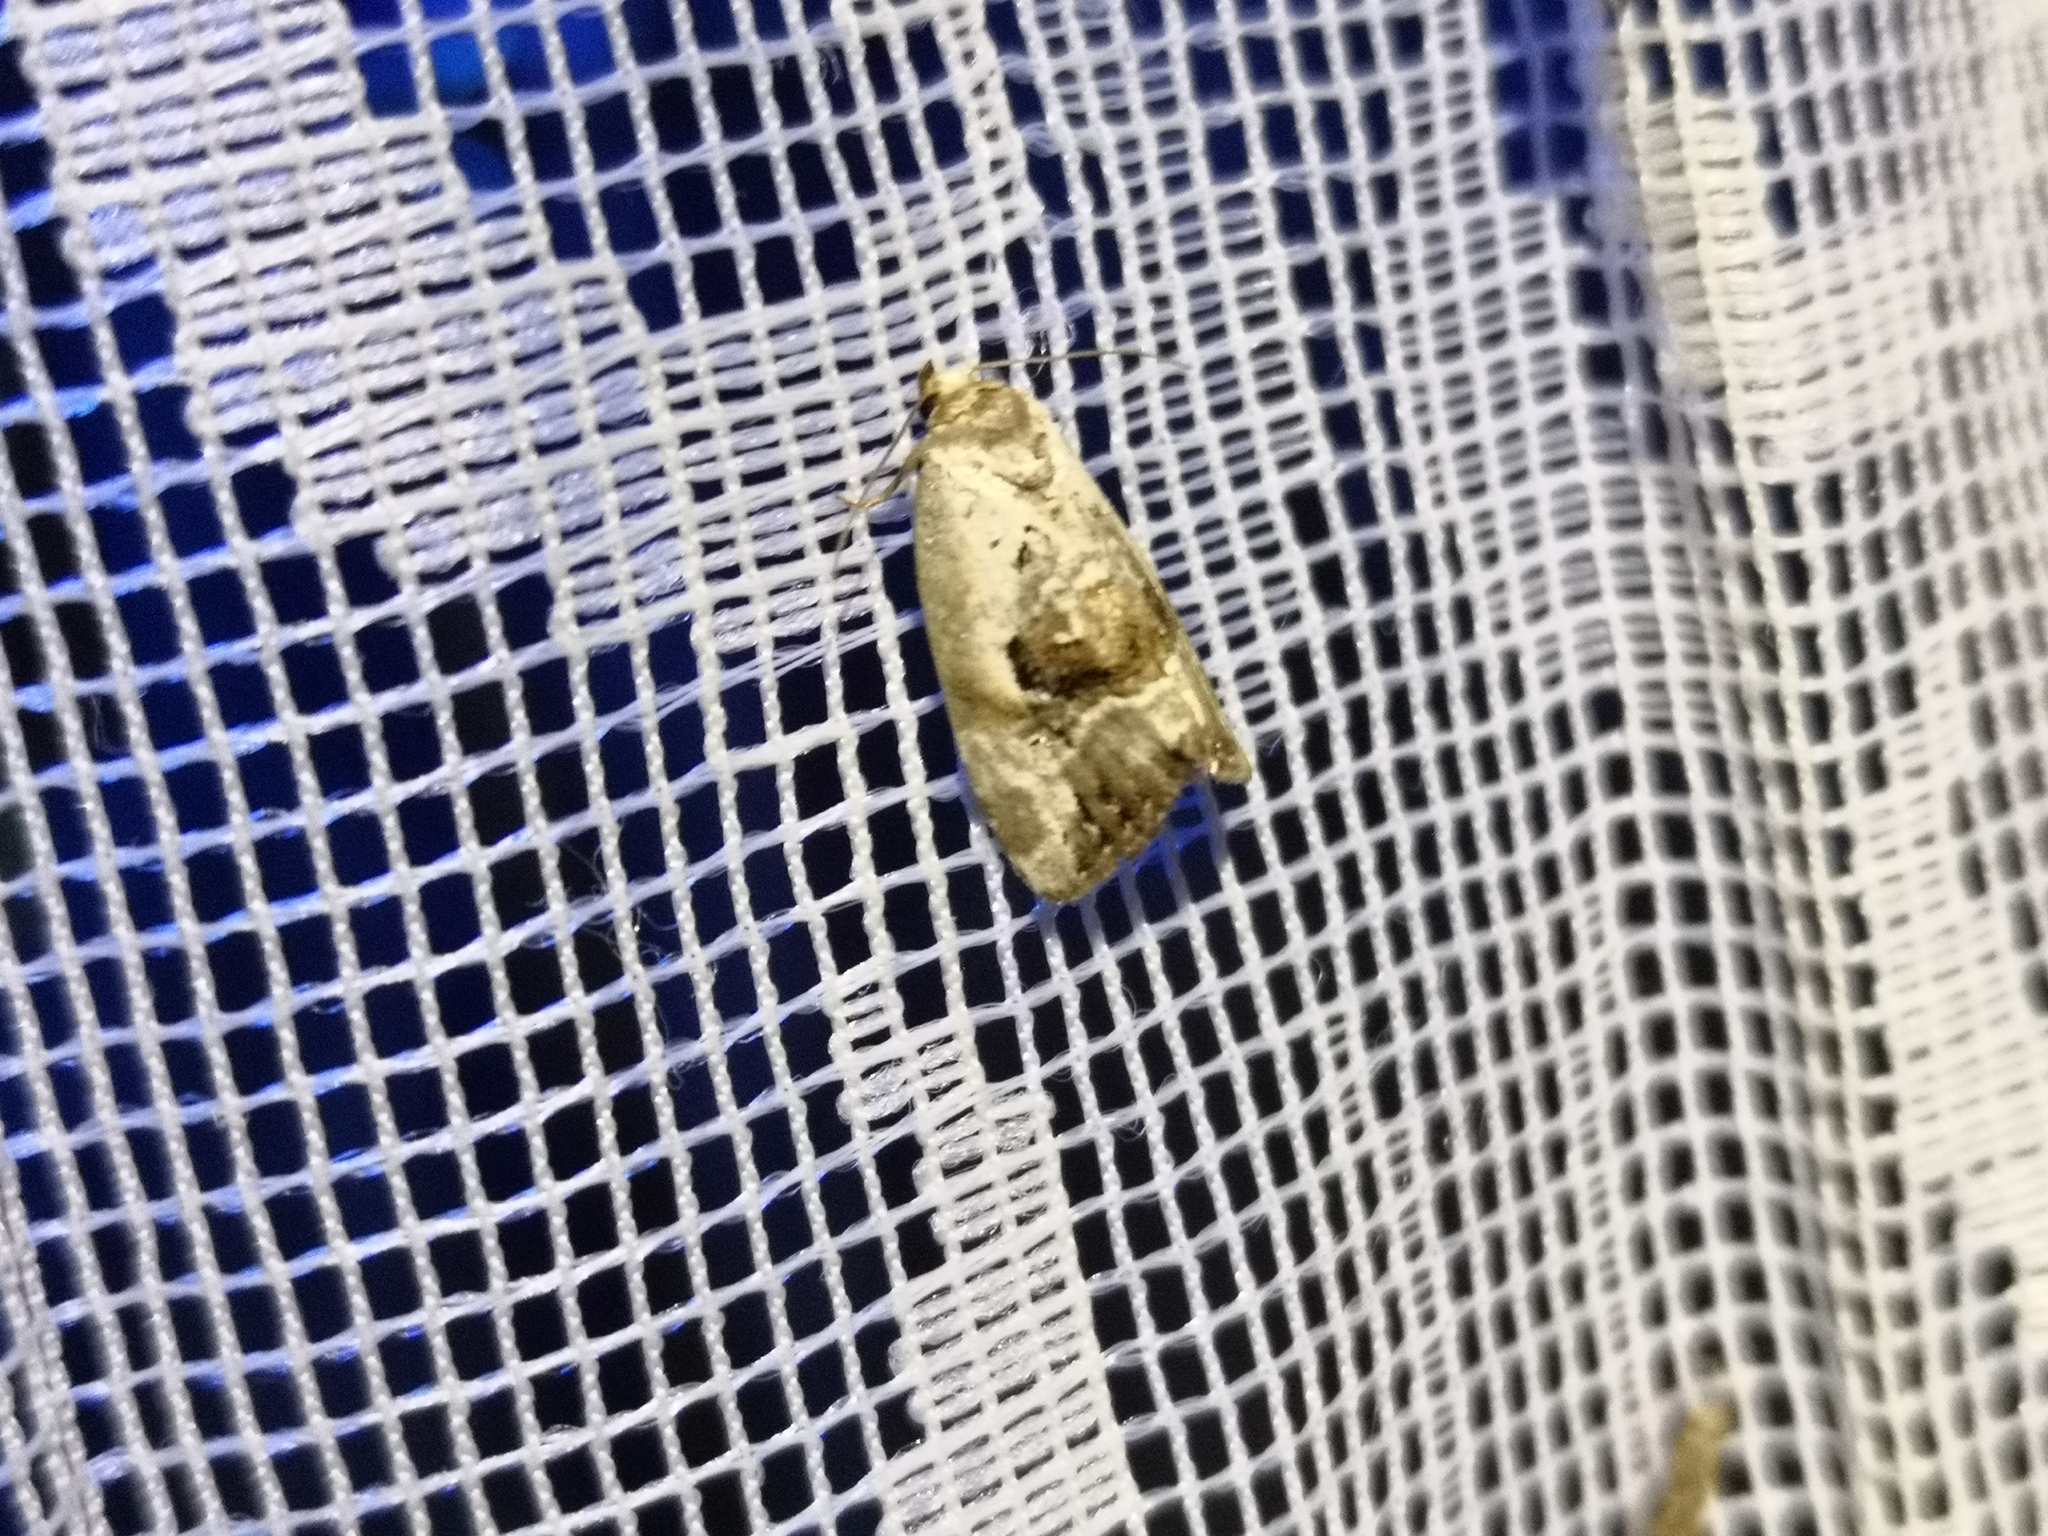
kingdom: Animalia
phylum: Arthropoda
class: Insecta
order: Lepidoptera
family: Noctuidae
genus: Elaphria
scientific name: Elaphria venustula
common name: Rosy marbled
